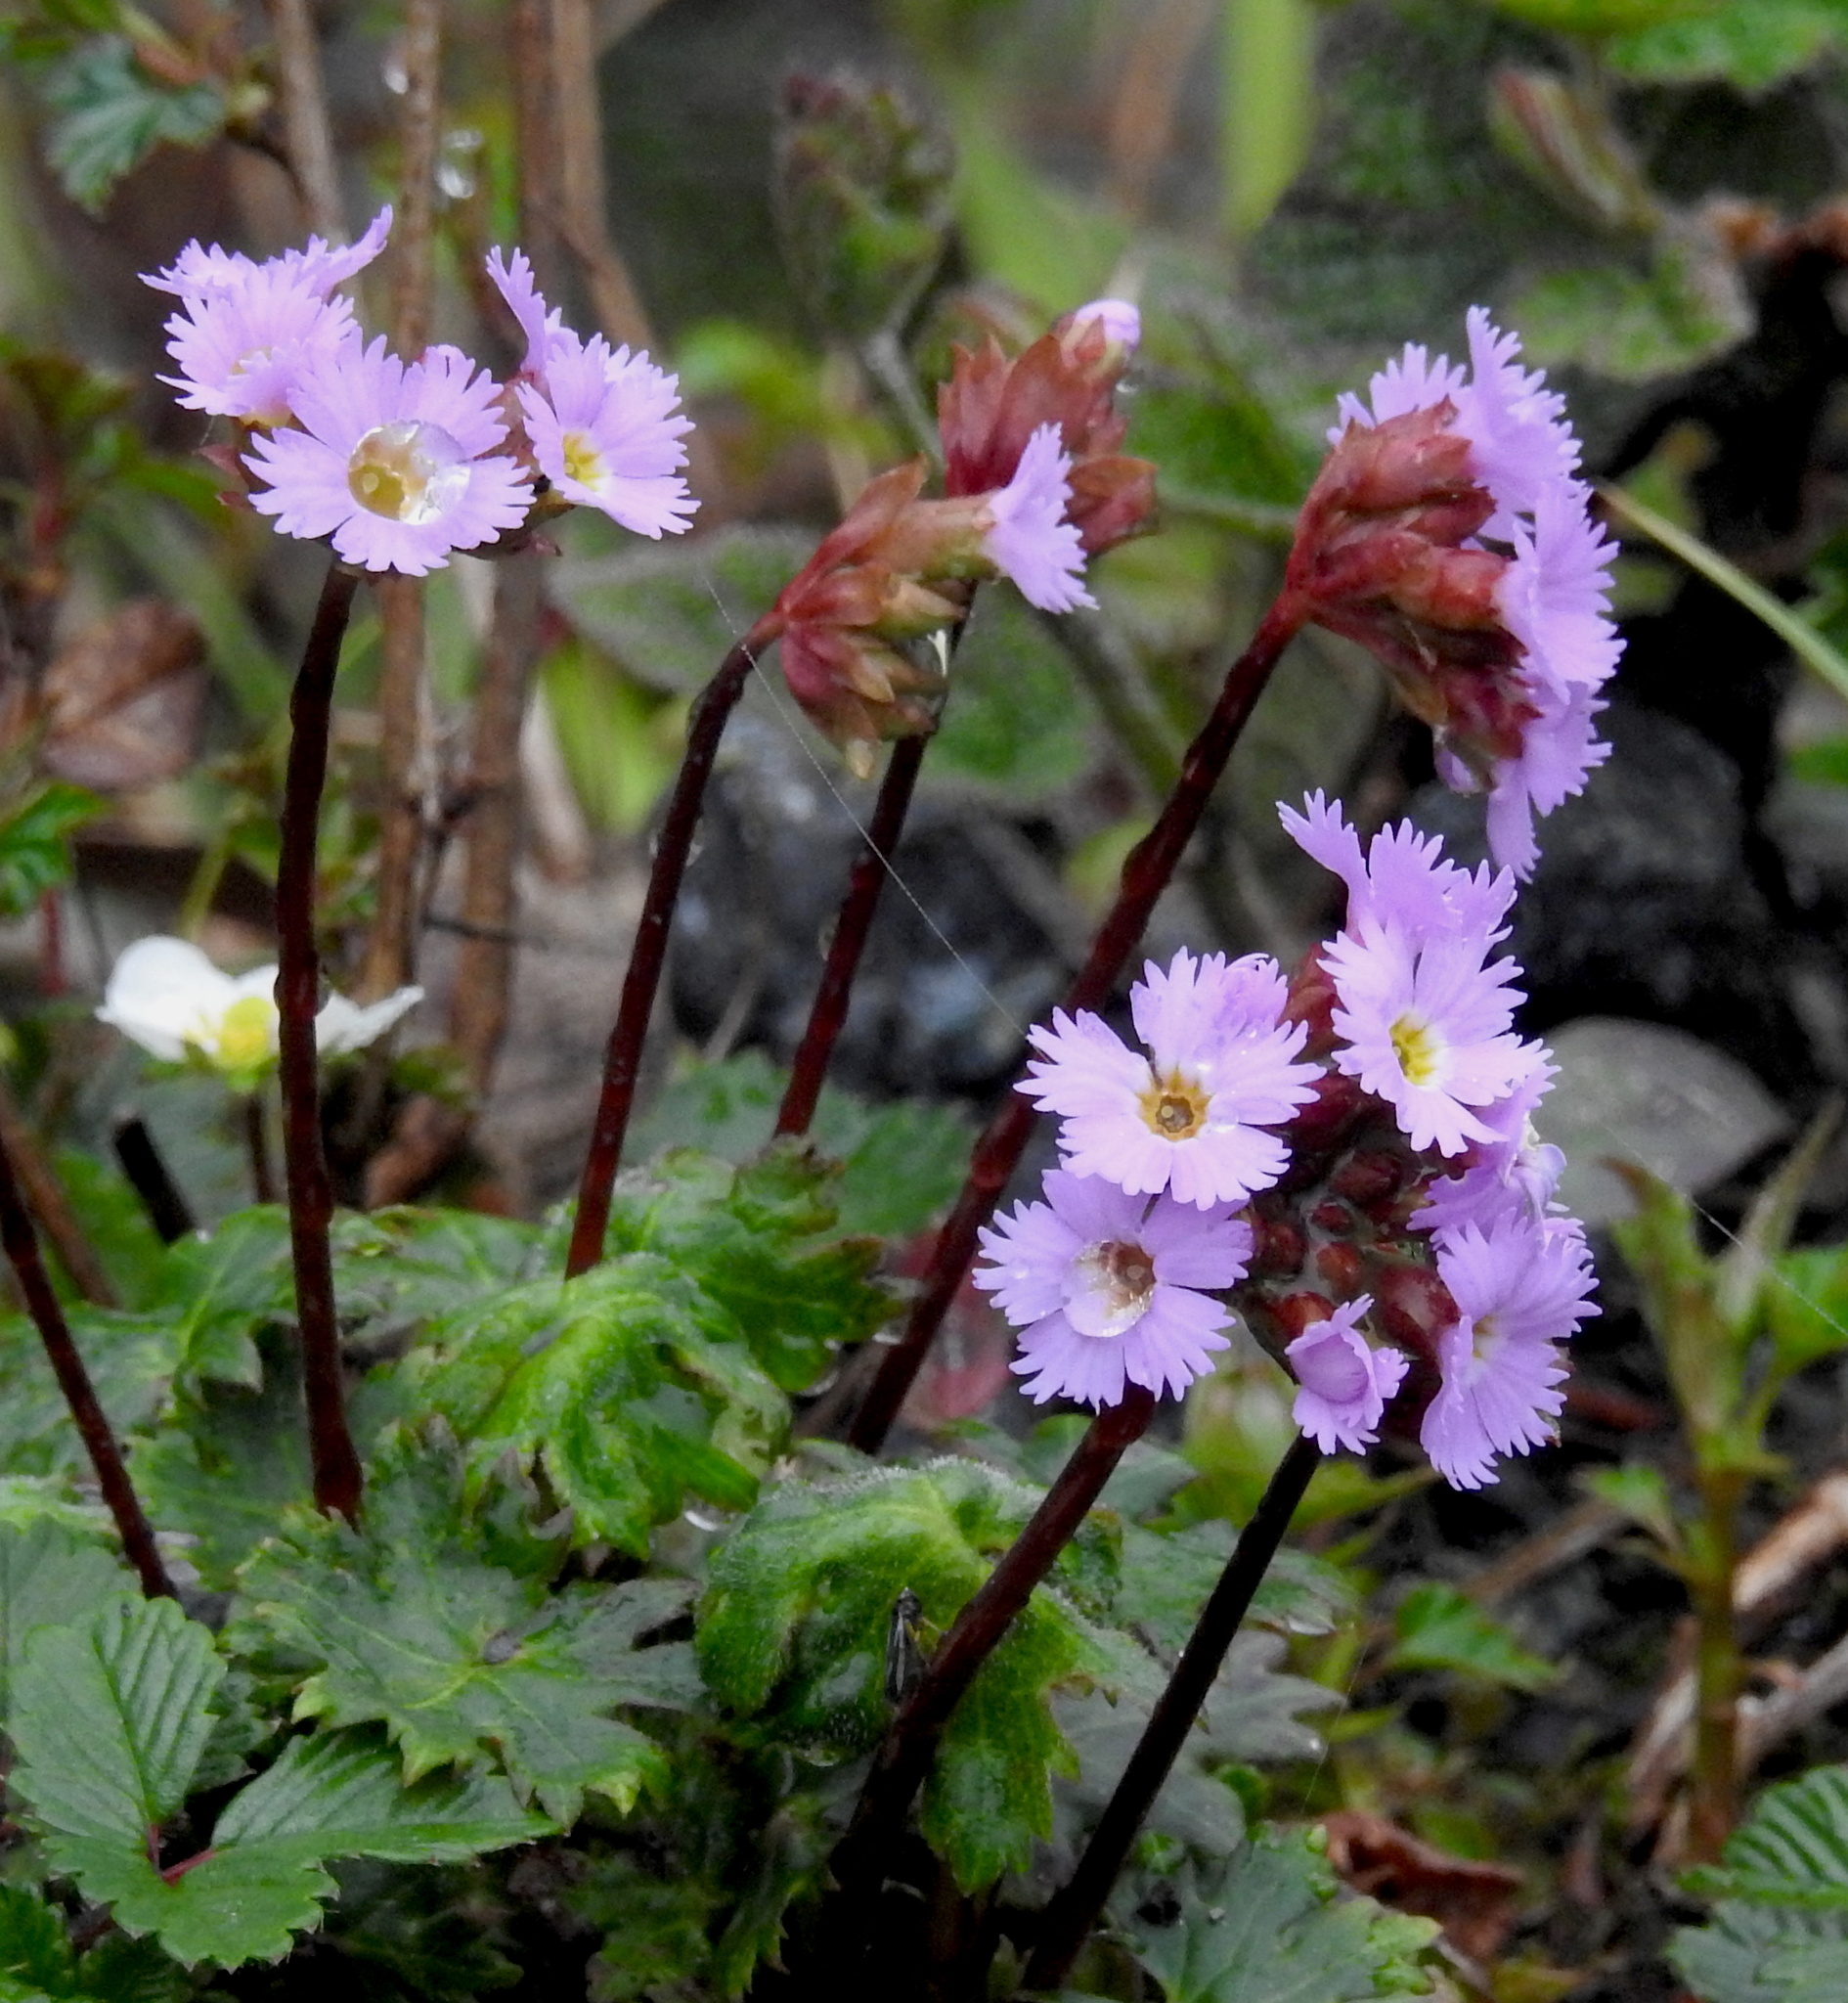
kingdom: Plantae
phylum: Tracheophyta
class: Magnoliopsida
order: Ericales
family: Primulaceae
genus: Primula
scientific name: Primula vaginata
